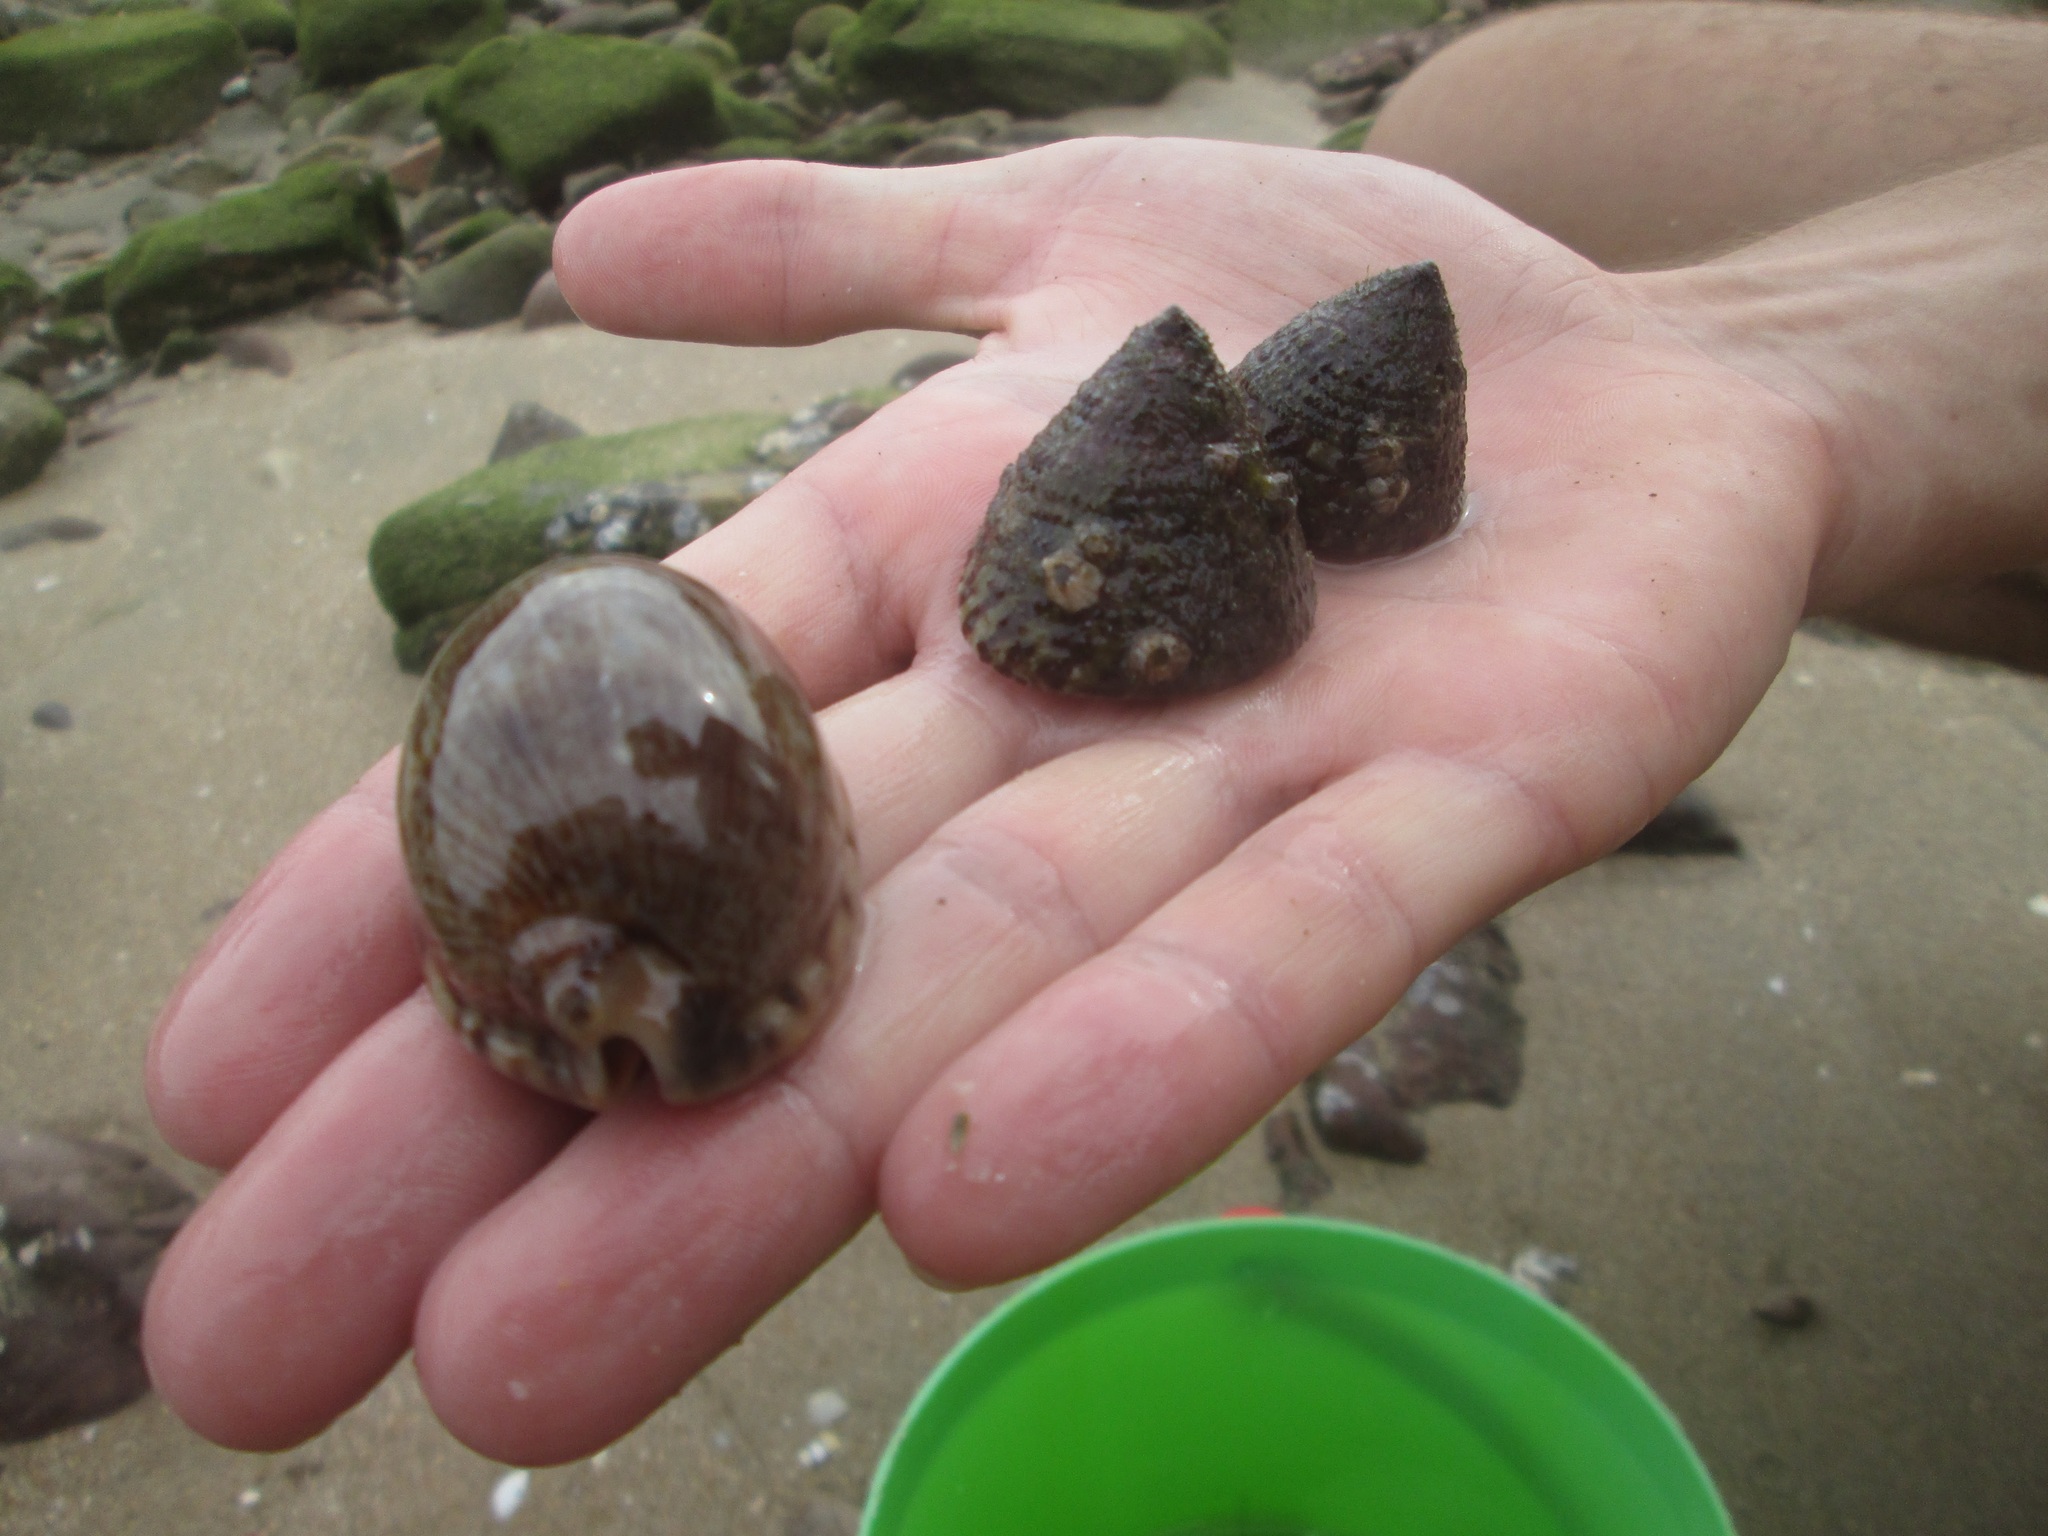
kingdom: Animalia
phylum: Mollusca
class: Gastropoda
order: Littorinimorpha
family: Cypraeidae
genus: Mauritia
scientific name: Mauritia arabica
